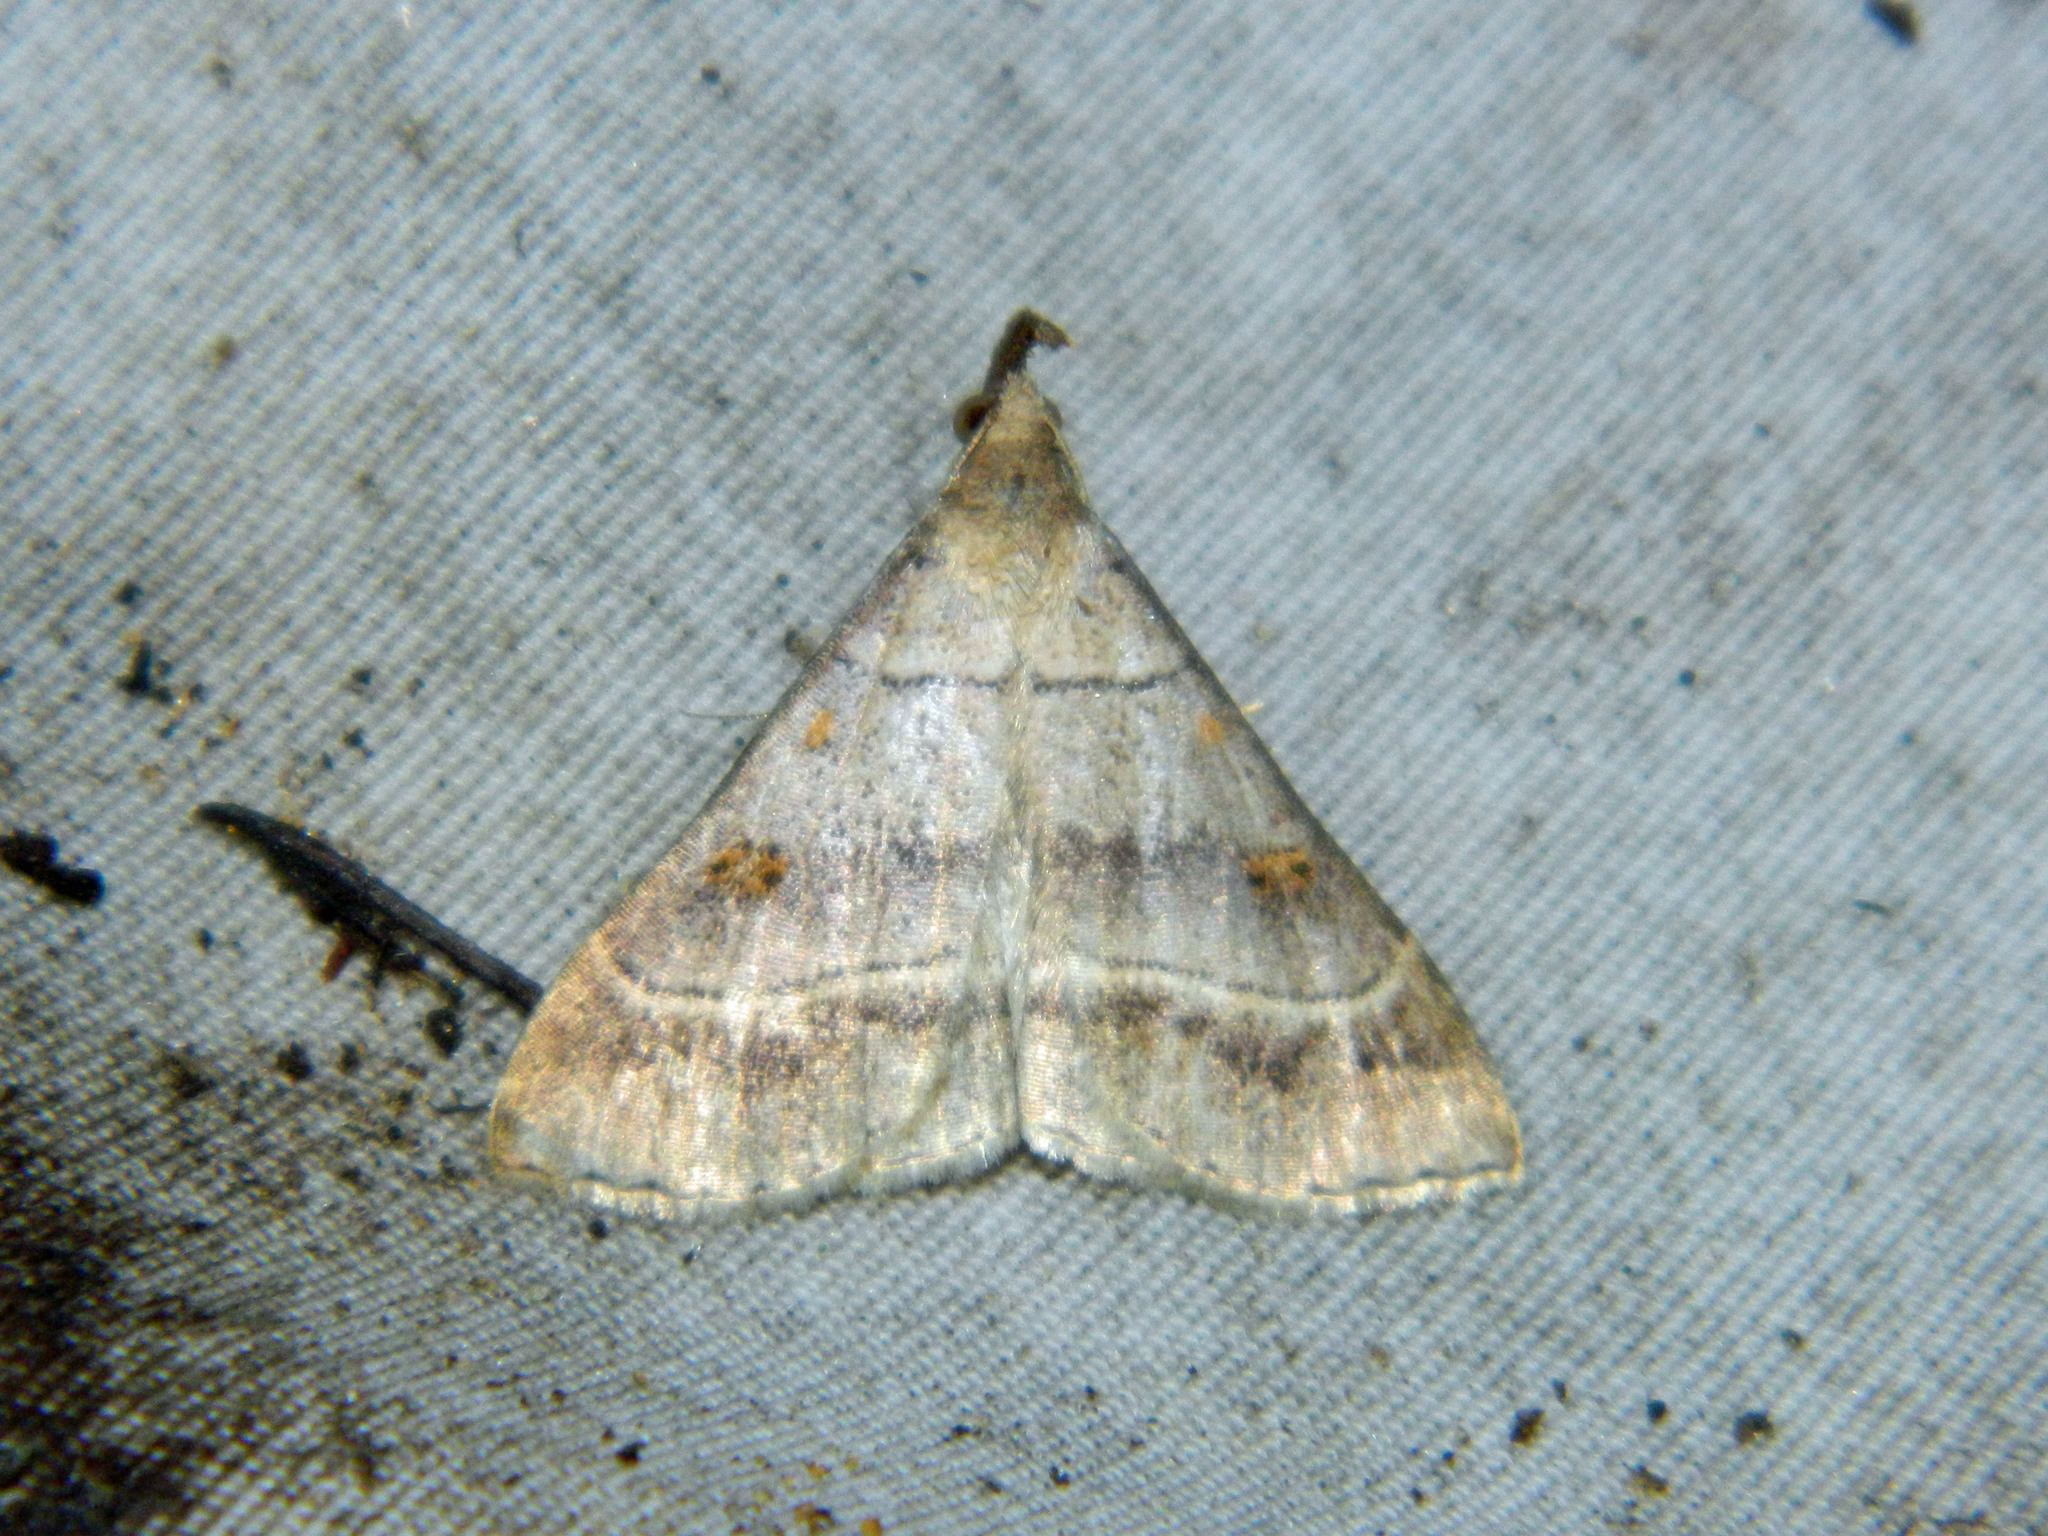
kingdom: Animalia
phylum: Arthropoda
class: Insecta
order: Lepidoptera
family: Erebidae
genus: Renia
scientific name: Renia flavipunctalis
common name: Yellow-spotted renia moth
